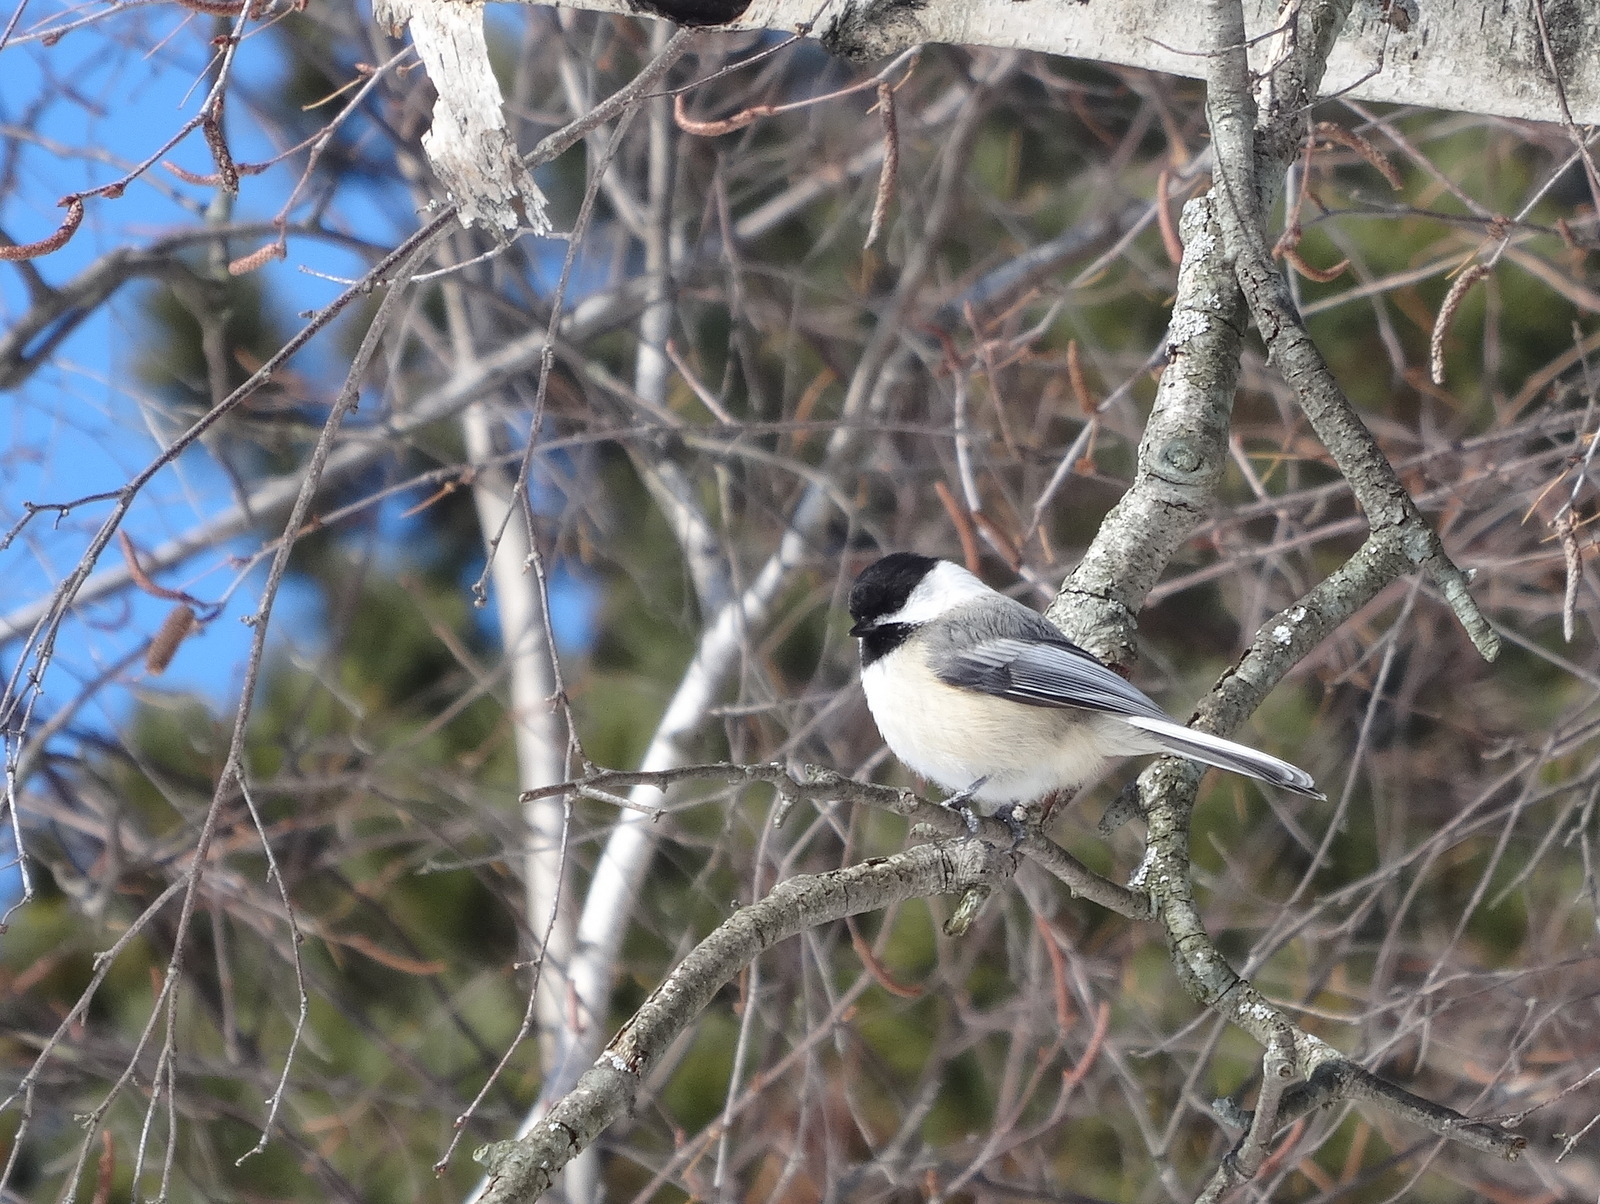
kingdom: Animalia
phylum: Chordata
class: Aves
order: Passeriformes
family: Paridae
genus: Poecile
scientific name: Poecile atricapillus
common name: Black-capped chickadee
